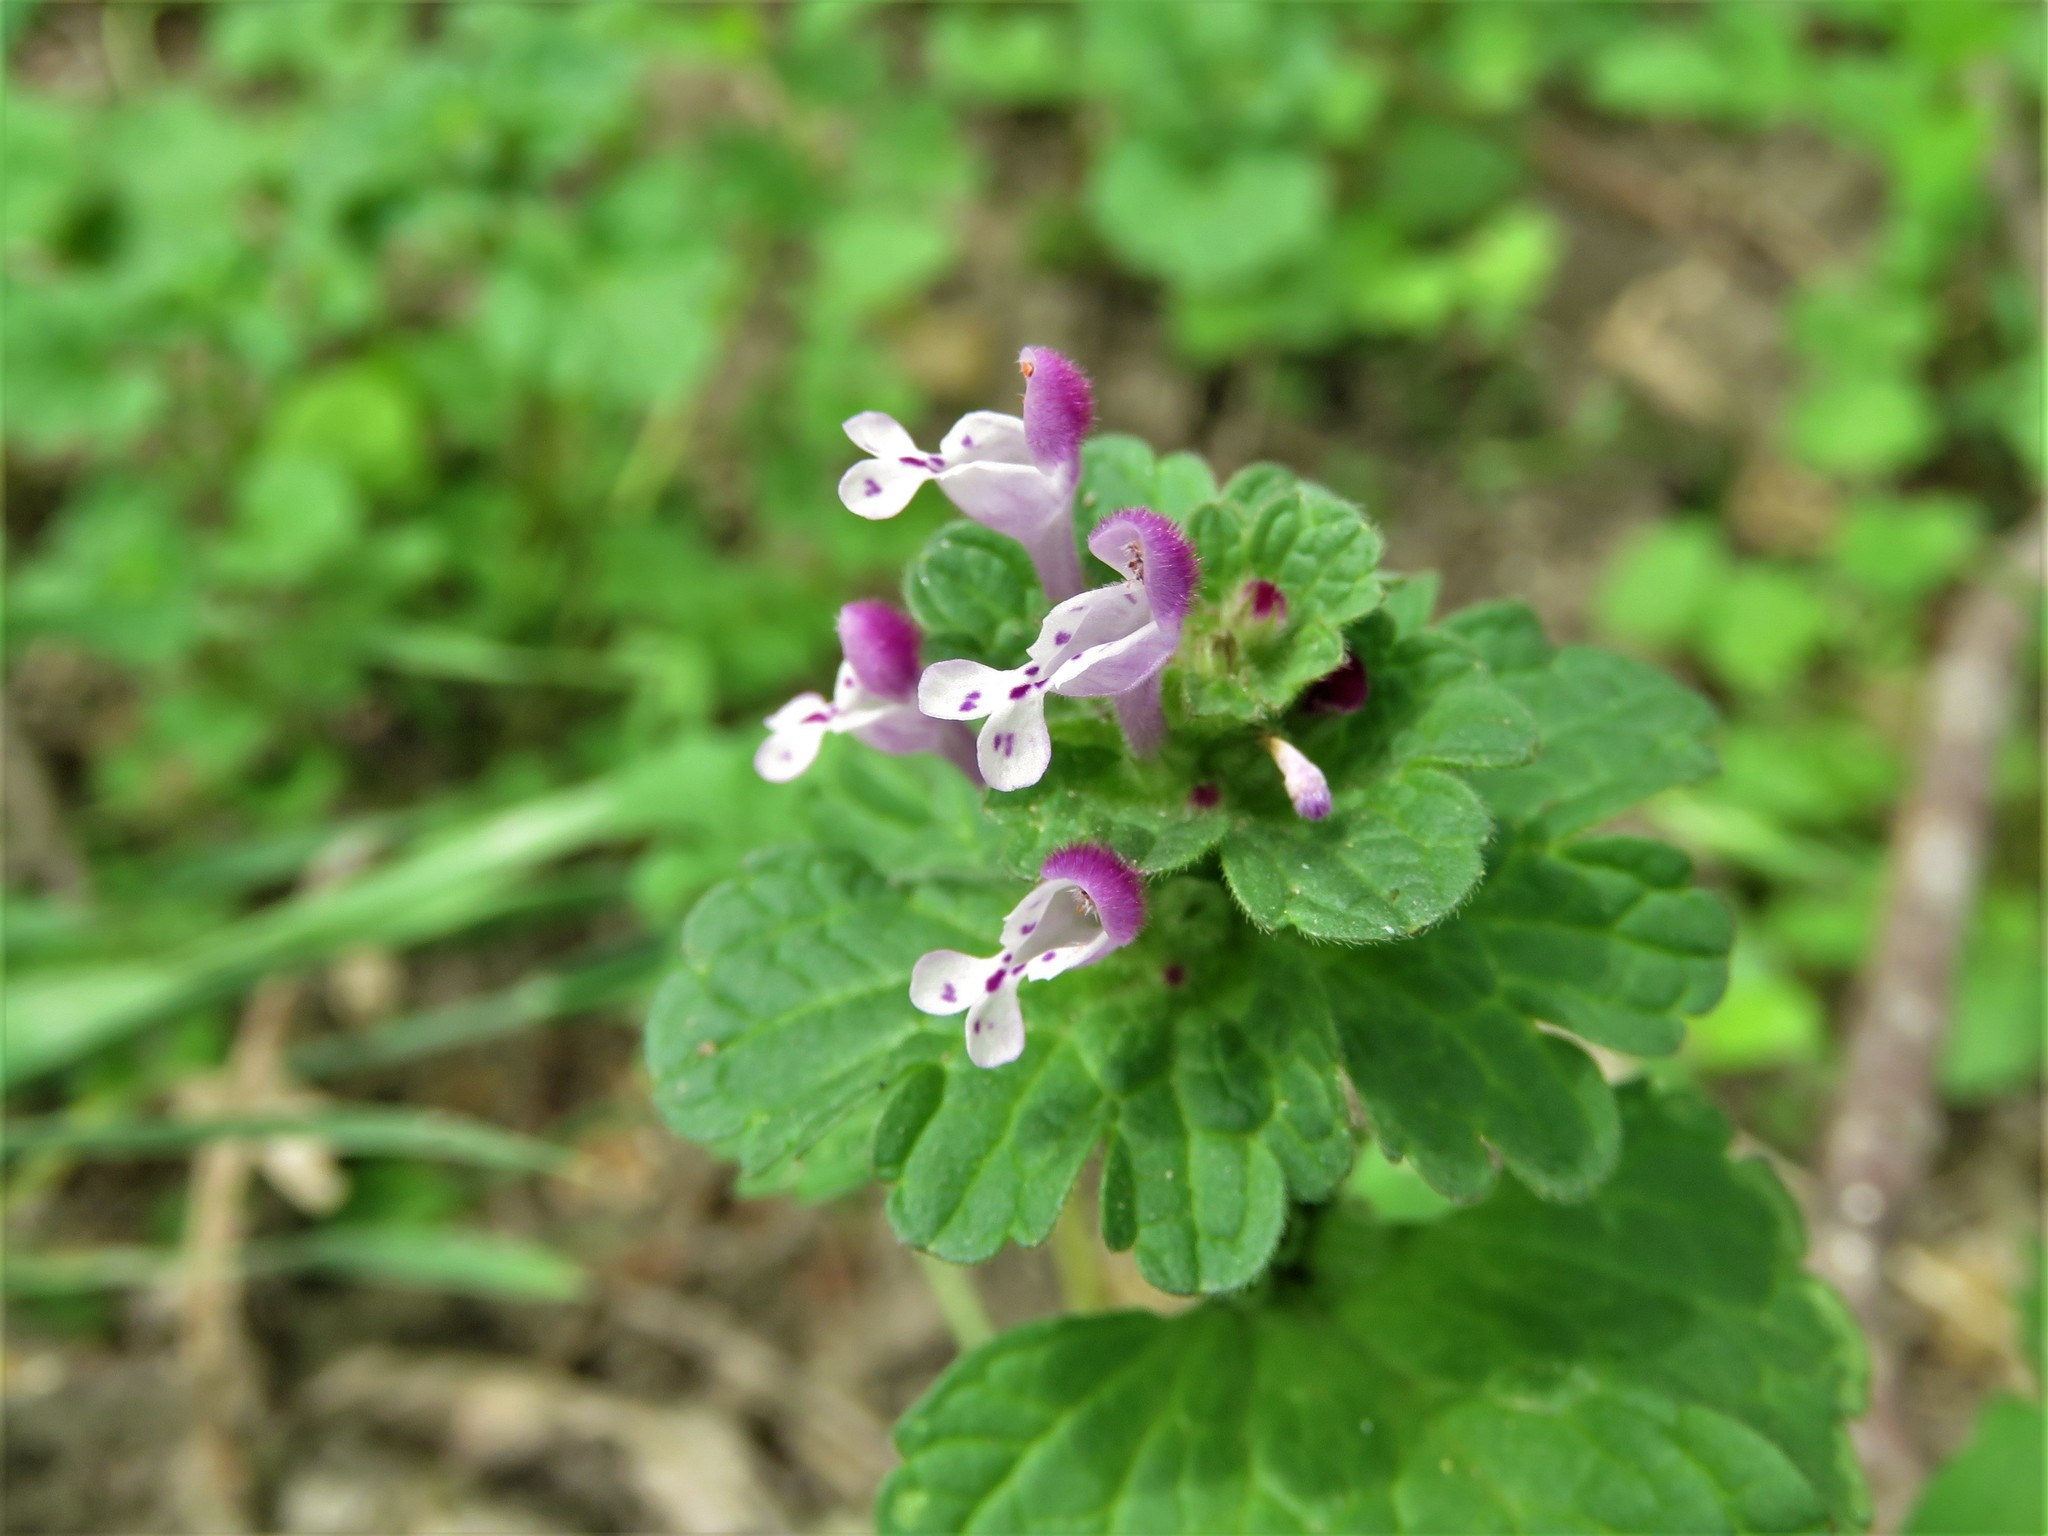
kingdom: Plantae
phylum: Tracheophyta
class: Magnoliopsida
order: Lamiales
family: Lamiaceae
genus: Lamium
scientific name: Lamium amplexicaule
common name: Henbit dead-nettle
